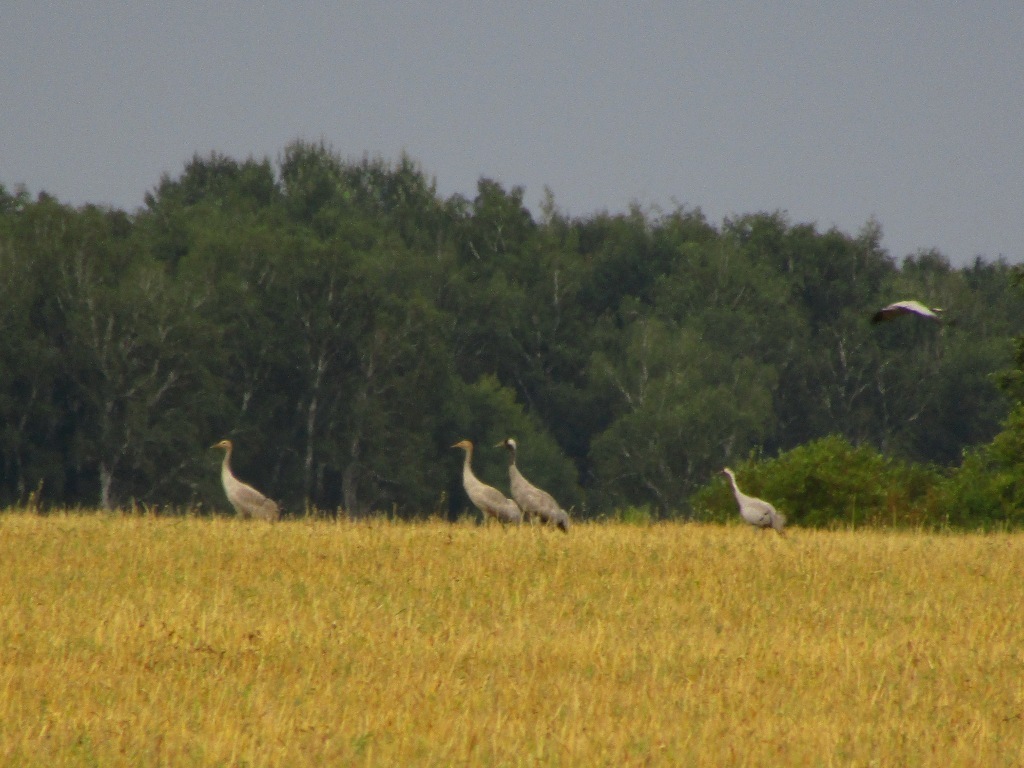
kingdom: Animalia
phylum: Chordata
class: Aves
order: Gruiformes
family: Gruidae
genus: Grus
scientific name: Grus grus
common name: Common crane
